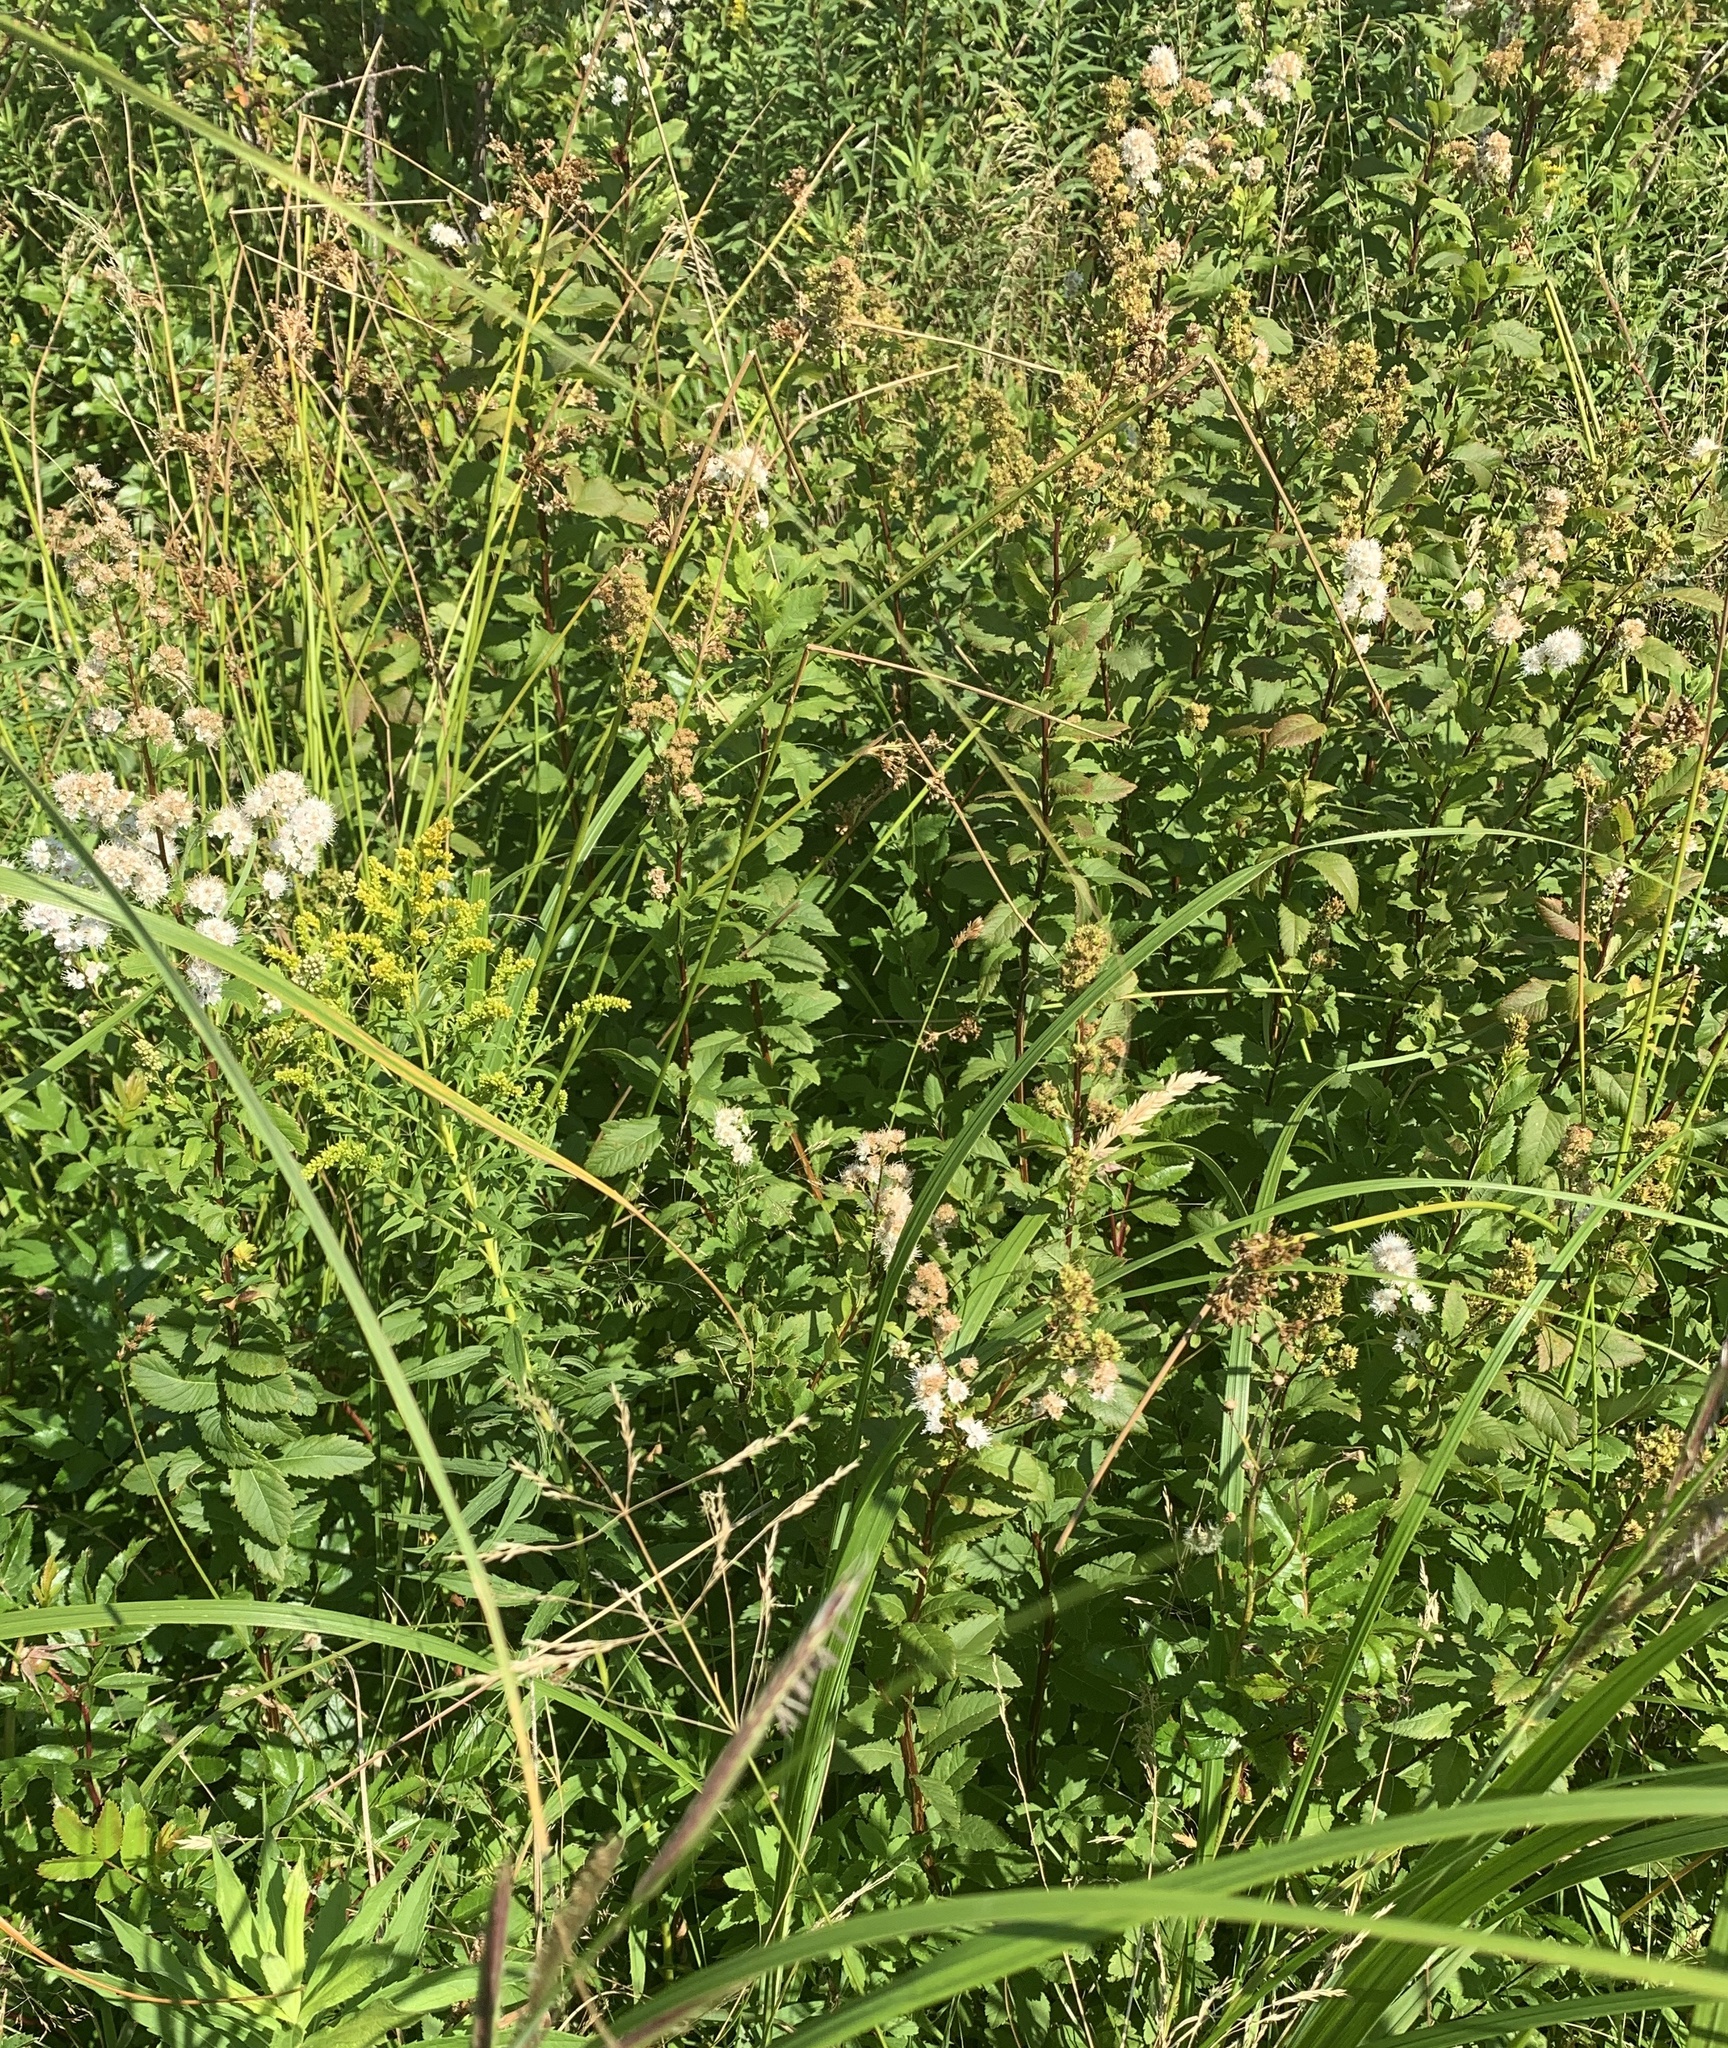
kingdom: Plantae
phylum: Tracheophyta
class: Magnoliopsida
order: Rosales
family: Rosaceae
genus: Spiraea
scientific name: Spiraea alba
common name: Pale bridewort
